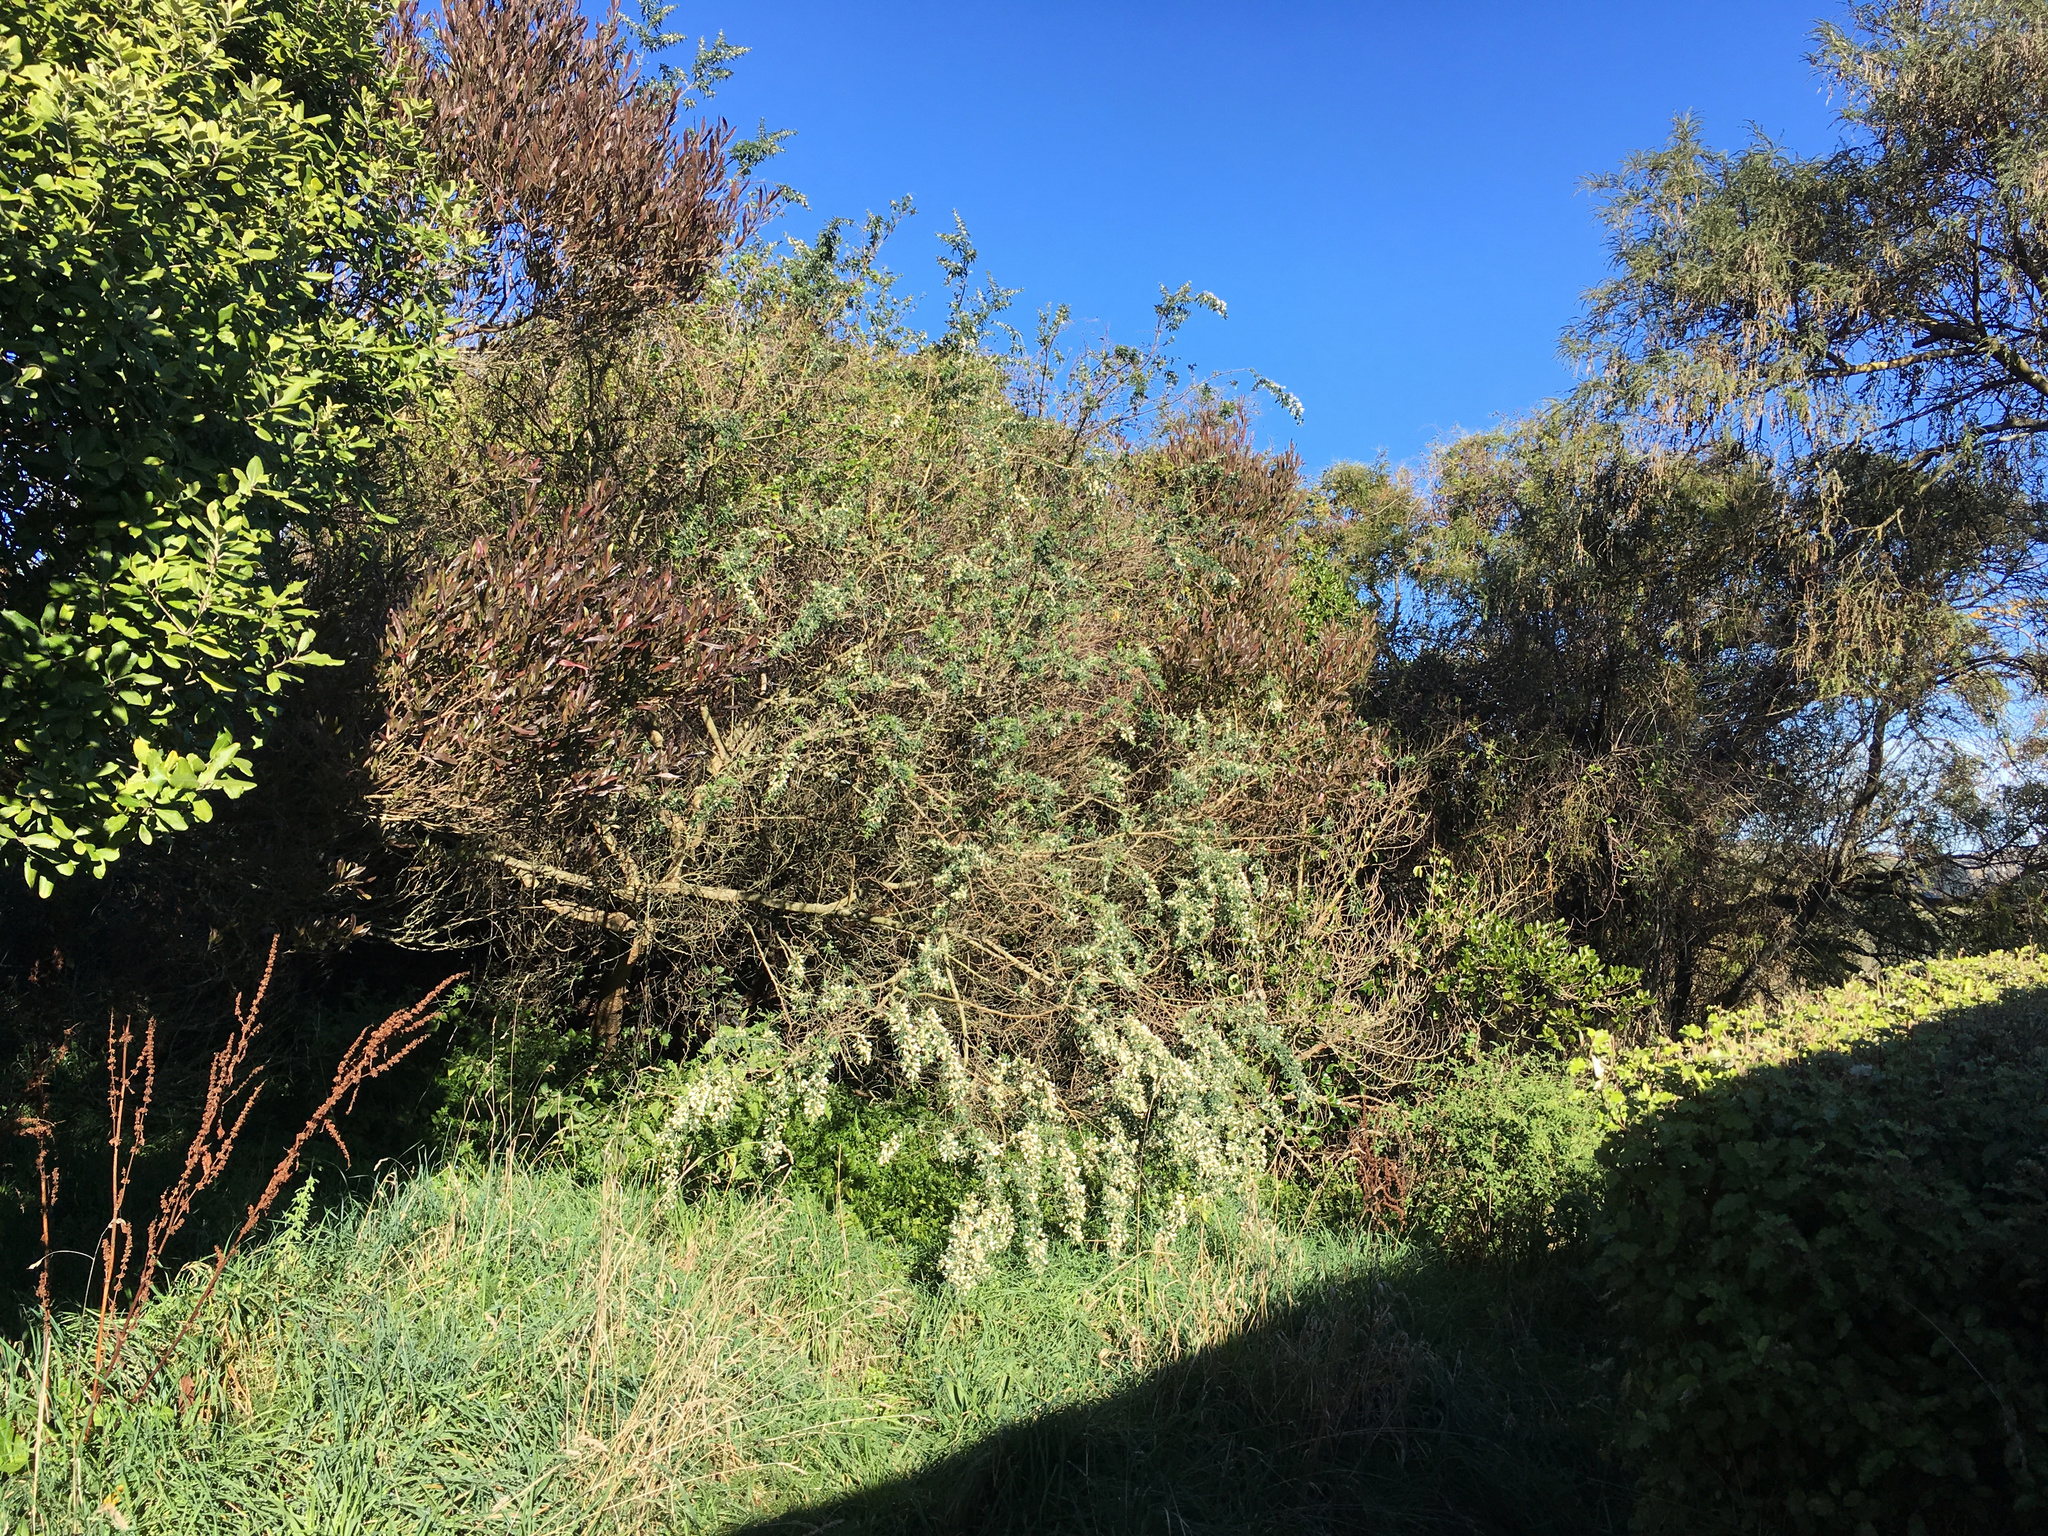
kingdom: Plantae
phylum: Tracheophyta
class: Magnoliopsida
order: Fabales
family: Fabaceae
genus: Chamaecytisus
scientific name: Chamaecytisus prolifer
